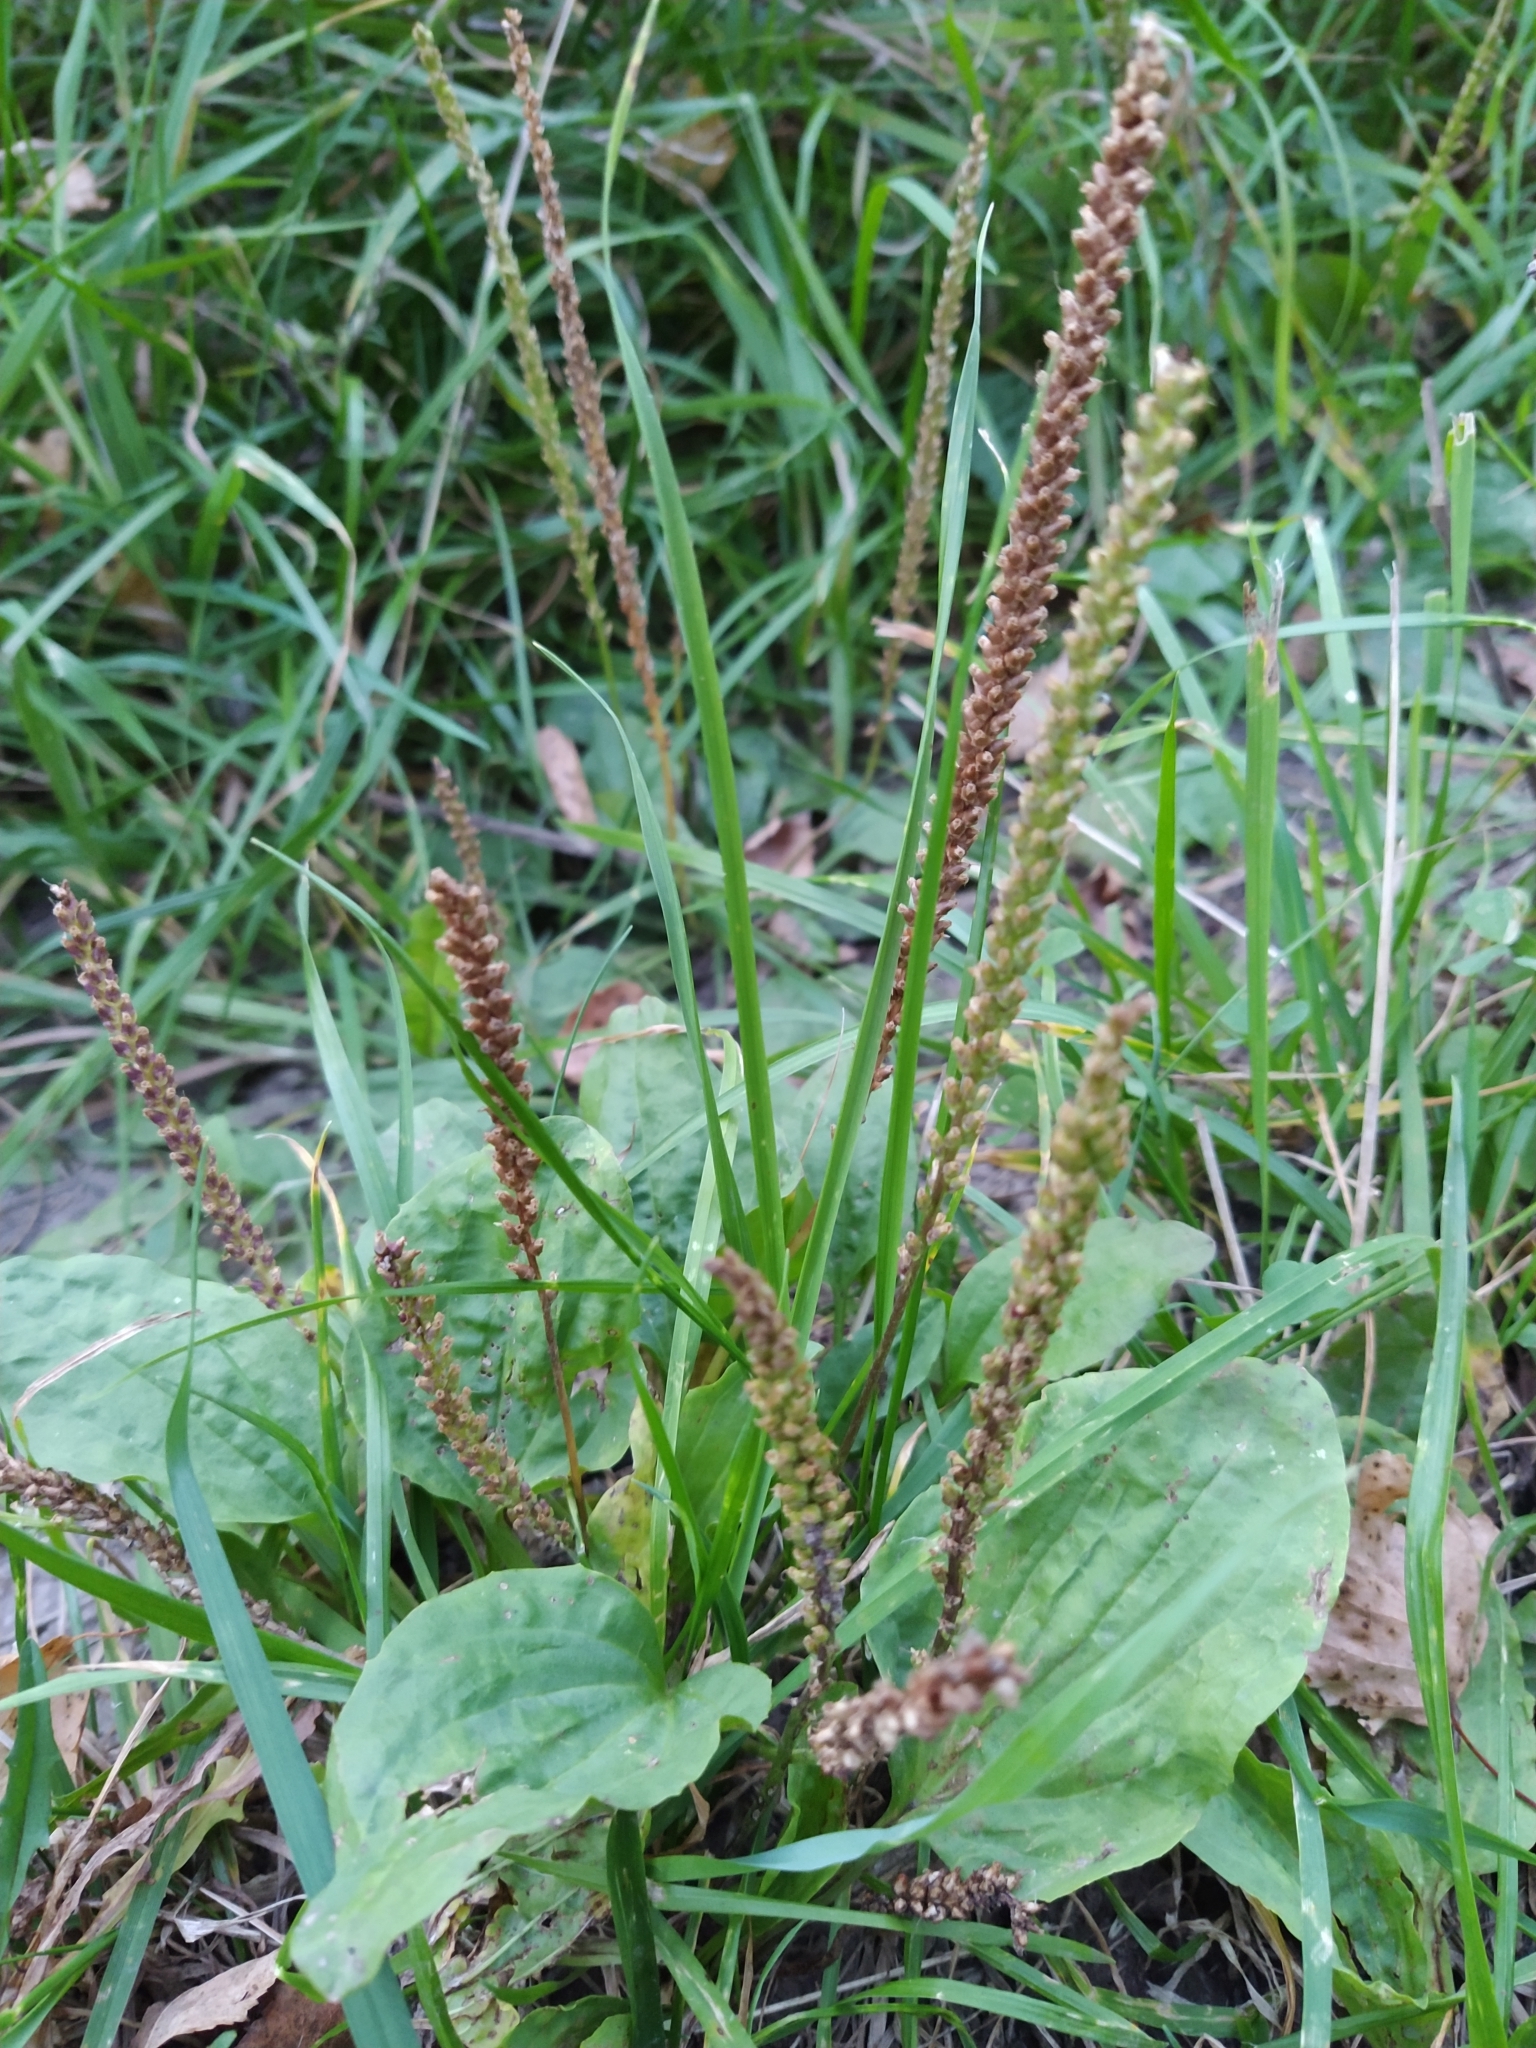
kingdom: Plantae
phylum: Tracheophyta
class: Magnoliopsida
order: Lamiales
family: Plantaginaceae
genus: Plantago
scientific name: Plantago major
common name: Common plantain
